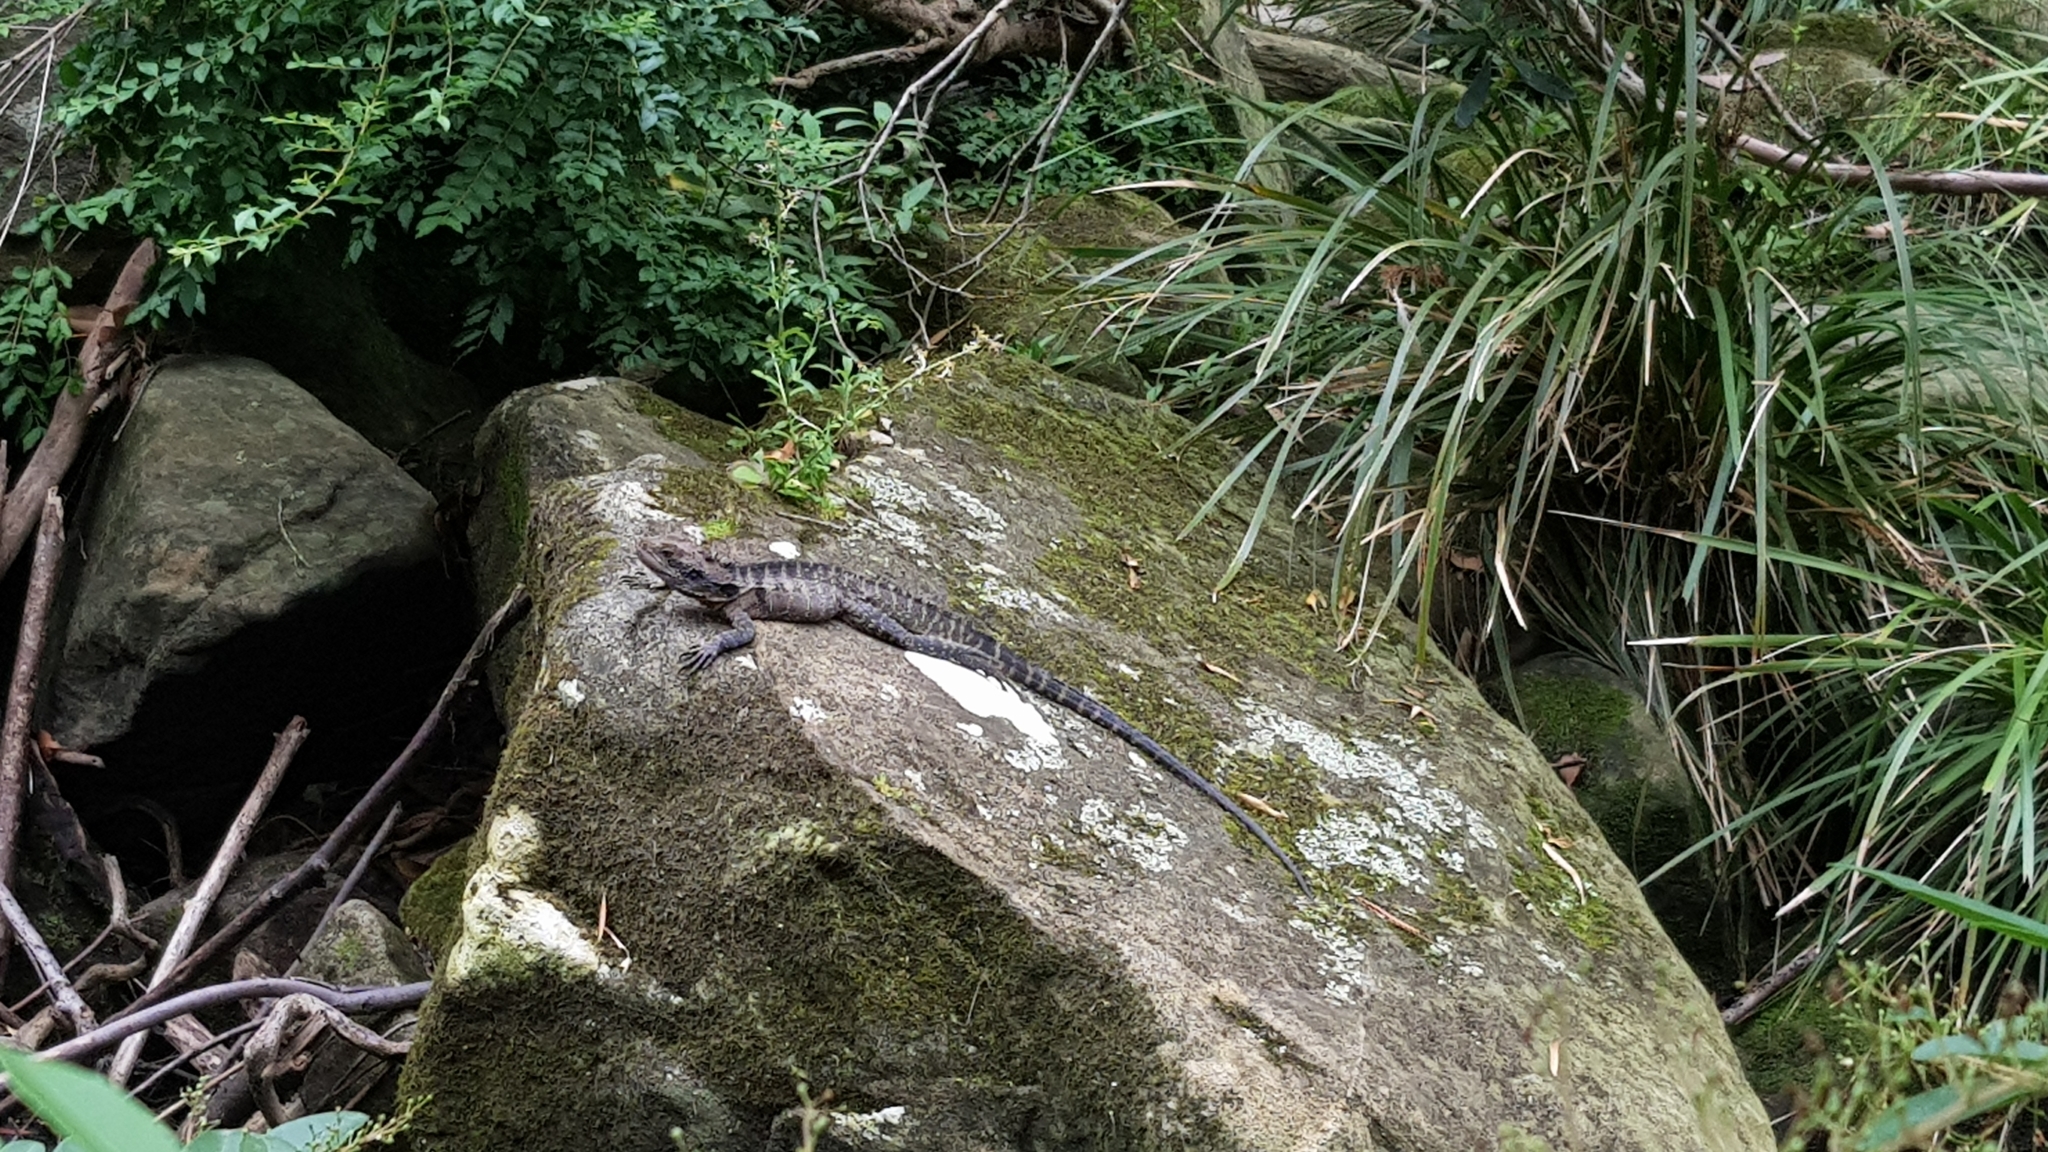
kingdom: Animalia
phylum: Chordata
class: Squamata
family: Agamidae
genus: Intellagama
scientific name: Intellagama lesueurii
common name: Eastern water dragon
